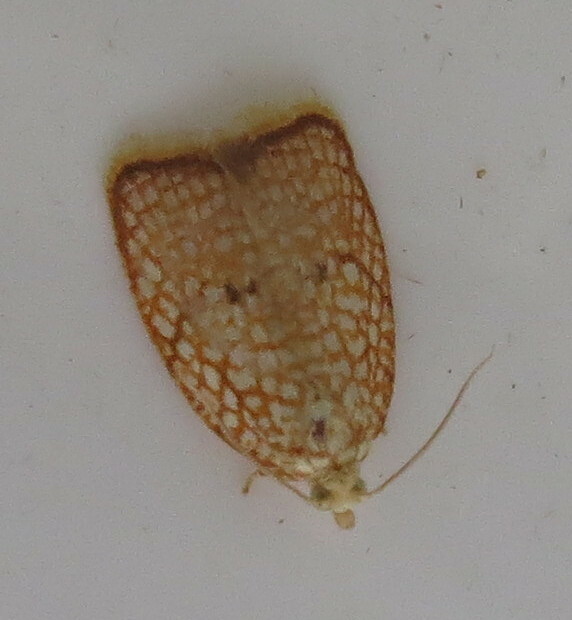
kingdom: Animalia
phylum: Arthropoda
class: Insecta
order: Lepidoptera
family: Tortricidae
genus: Acleris
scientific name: Acleris forsskaleana
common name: Maple button
